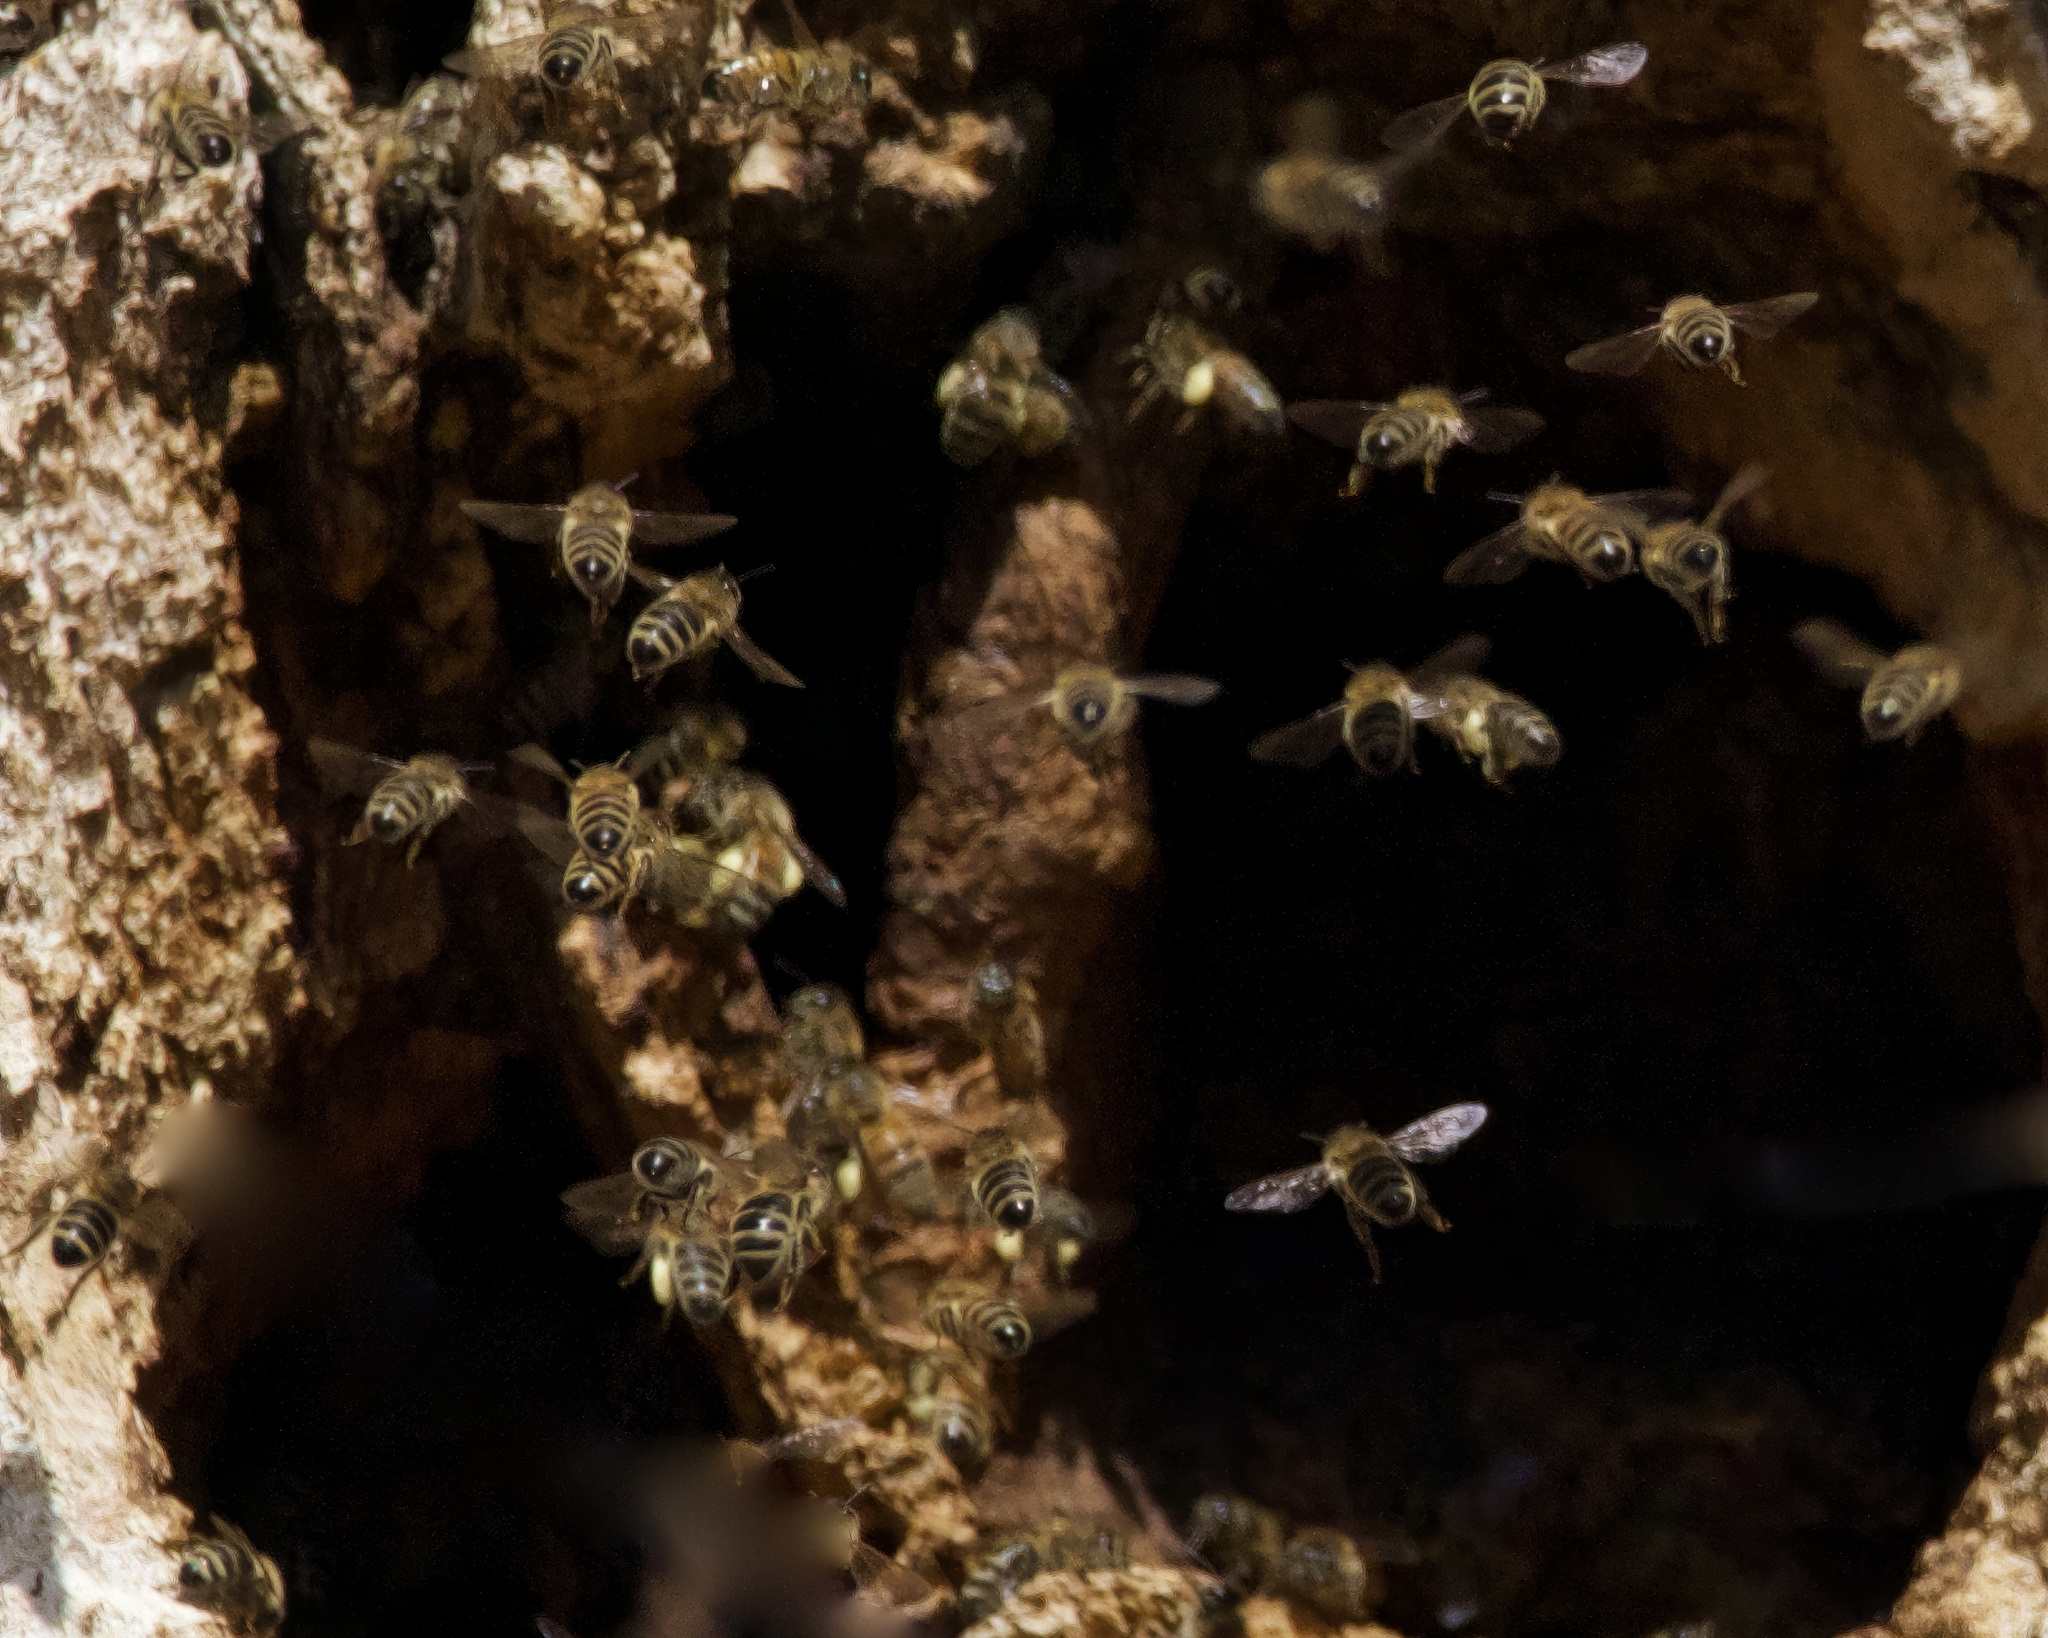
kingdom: Animalia
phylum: Arthropoda
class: Insecta
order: Hymenoptera
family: Apidae
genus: Apis
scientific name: Apis mellifera
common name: Honey bee
